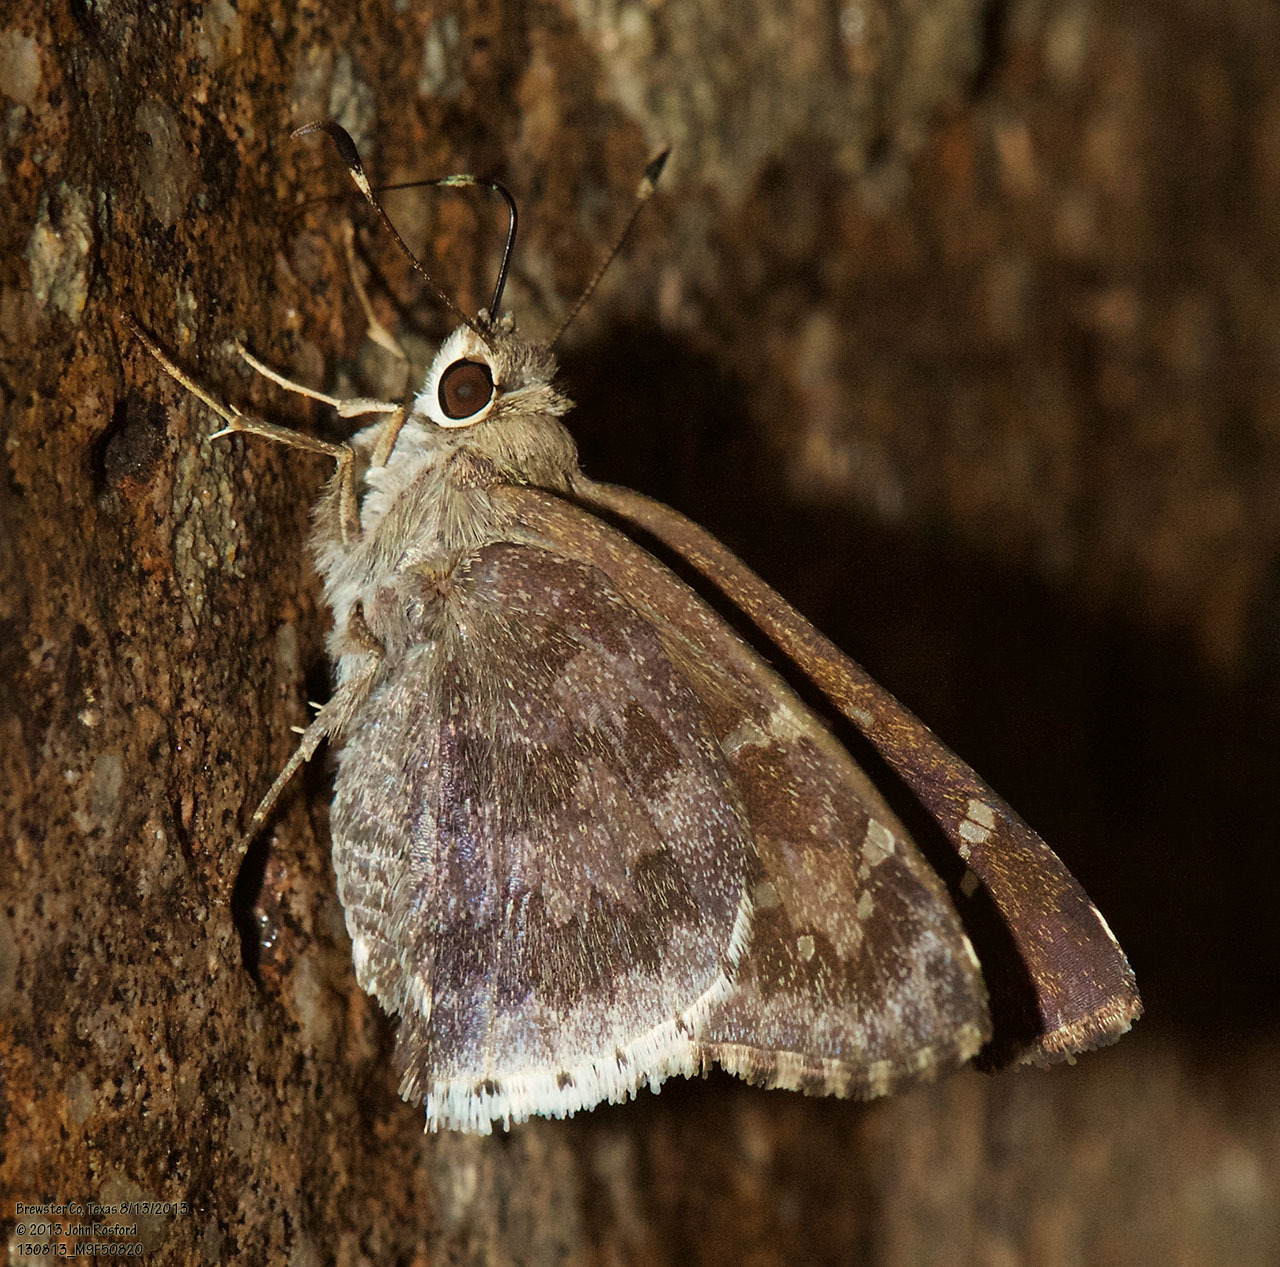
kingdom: Animalia
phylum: Arthropoda
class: Insecta
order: Lepidoptera
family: Hesperiidae
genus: Cogia
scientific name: Cogia hippalus
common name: Acacia skipper
